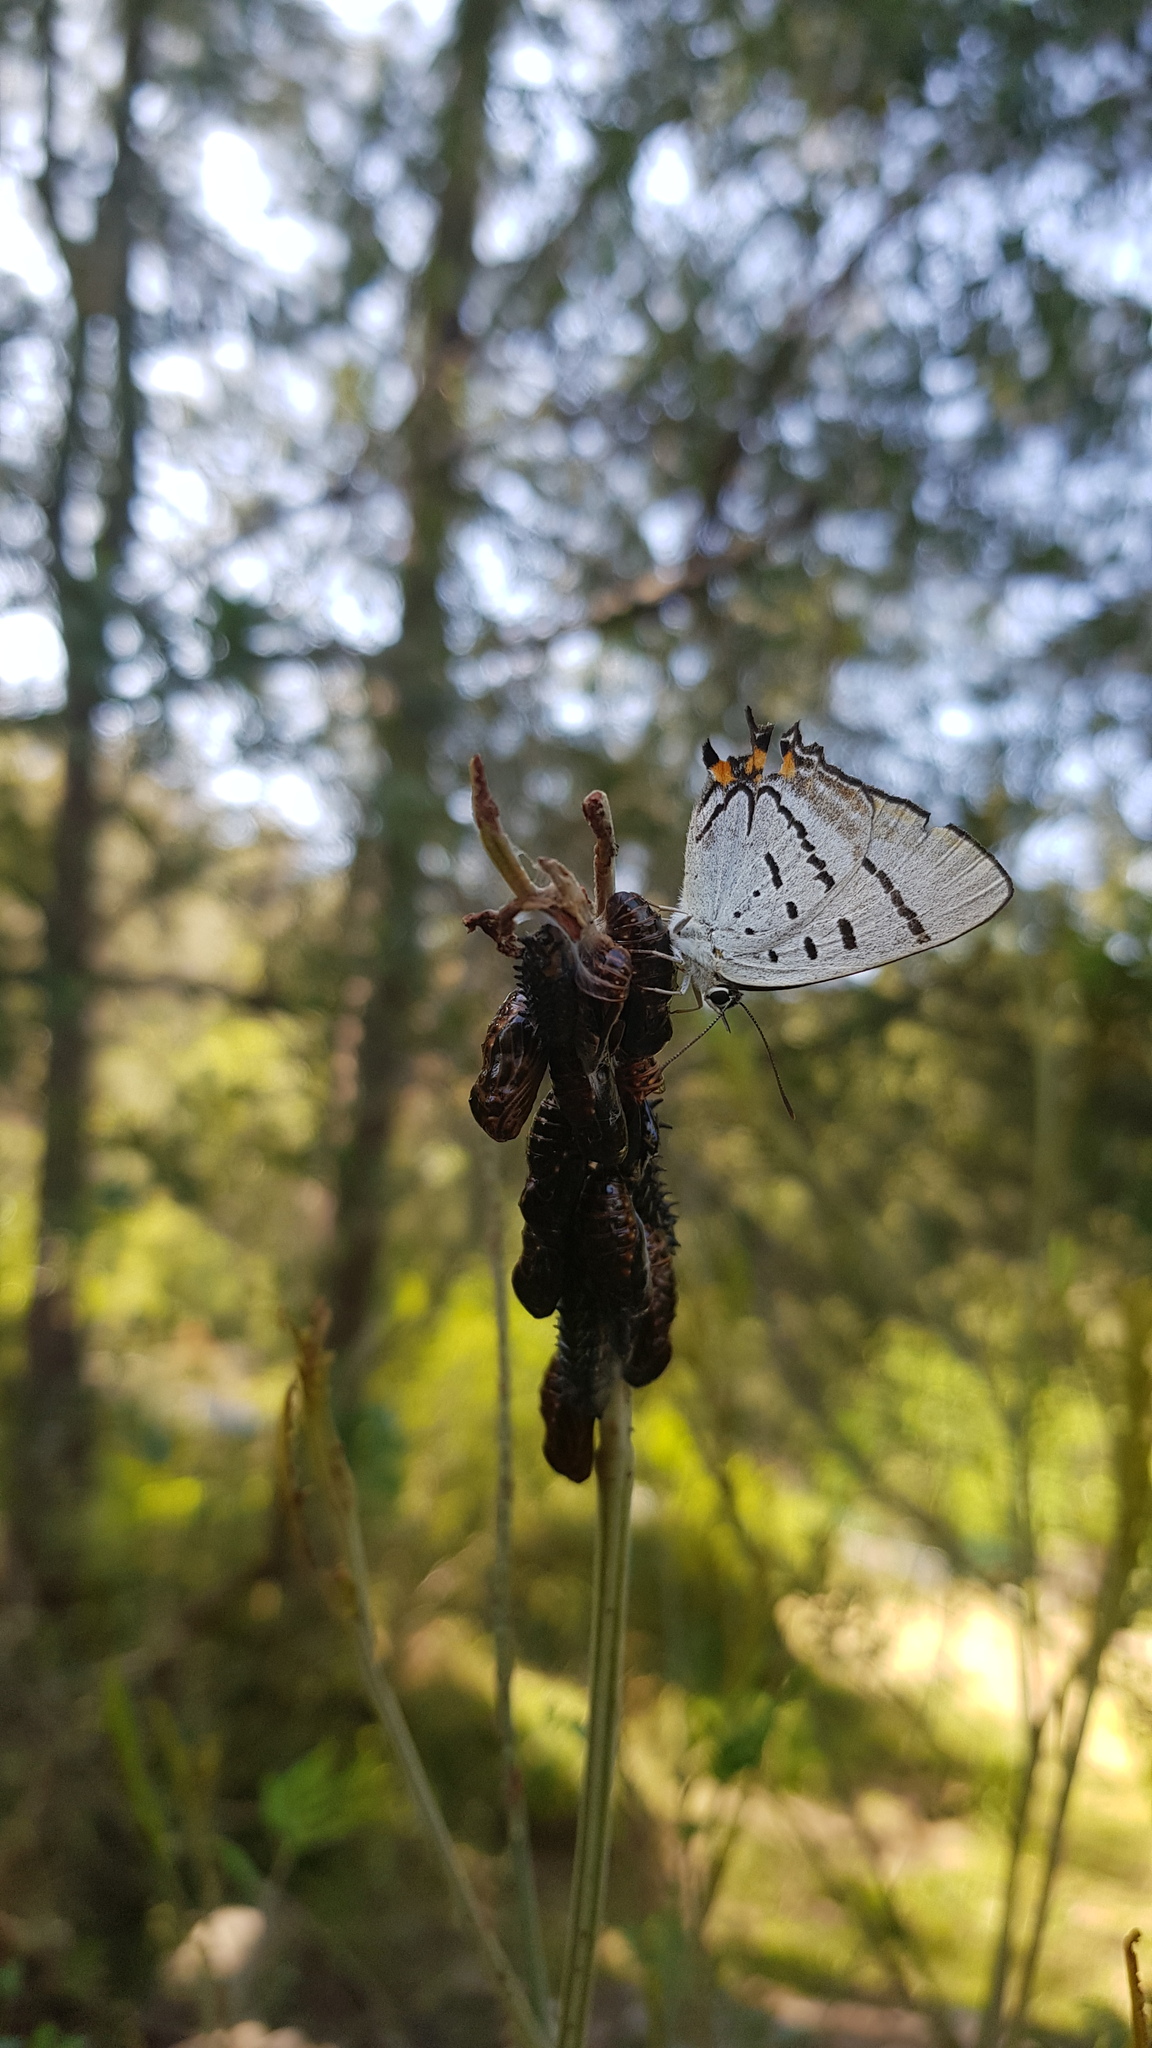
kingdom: Animalia
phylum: Arthropoda
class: Insecta
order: Lepidoptera
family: Lycaenidae
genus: Jalmenus
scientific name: Jalmenus evagoras
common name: Common imperial blue
